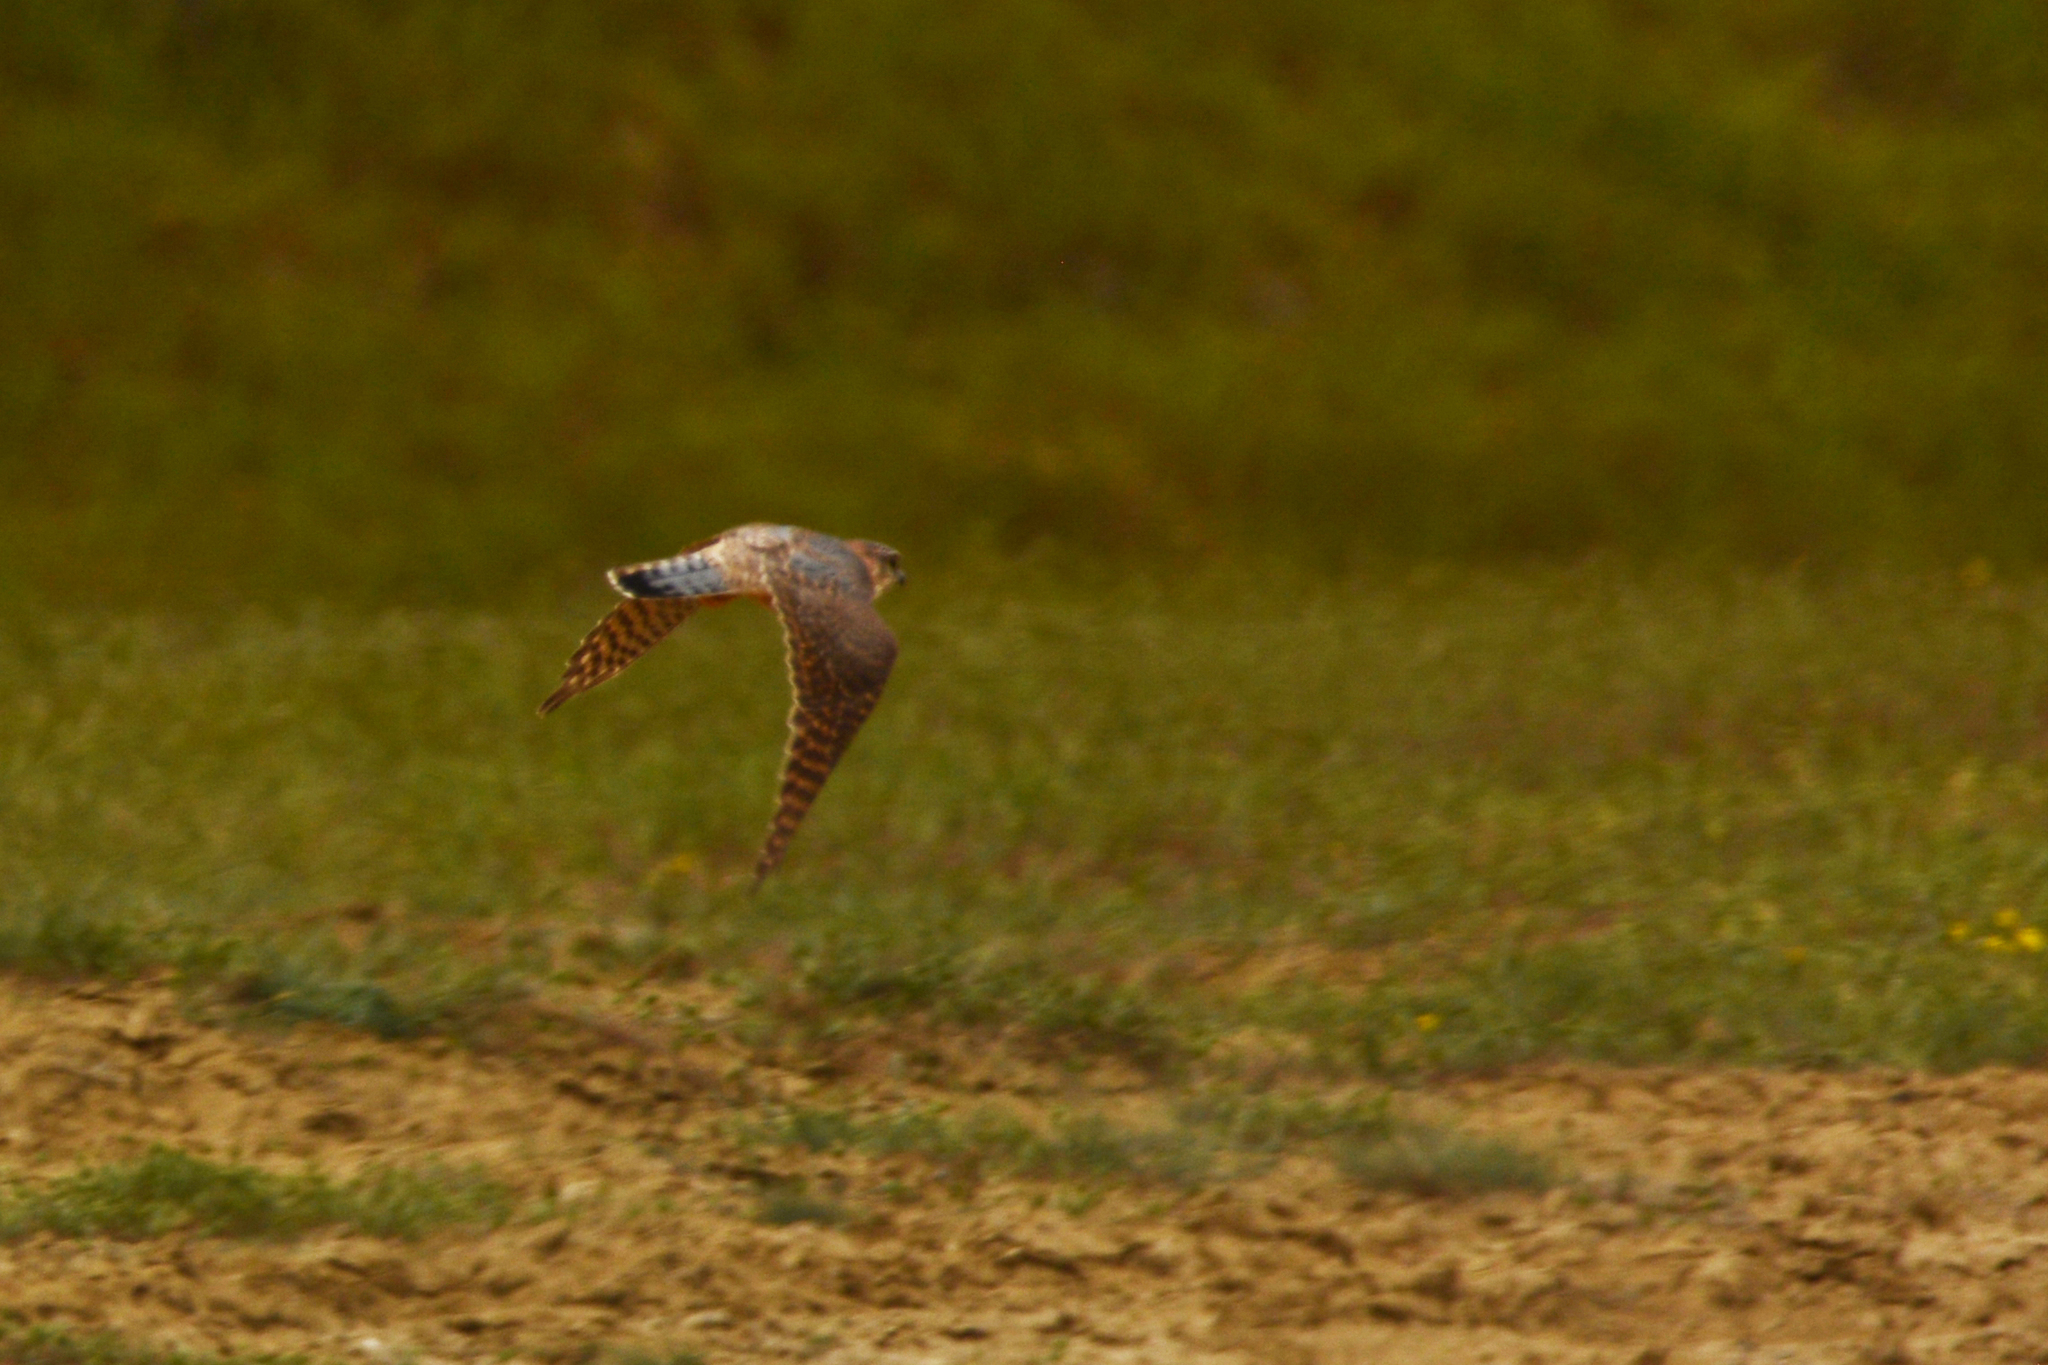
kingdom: Animalia
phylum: Chordata
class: Aves
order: Falconiformes
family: Falconidae
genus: Falco
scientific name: Falco columbarius
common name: Merlin
